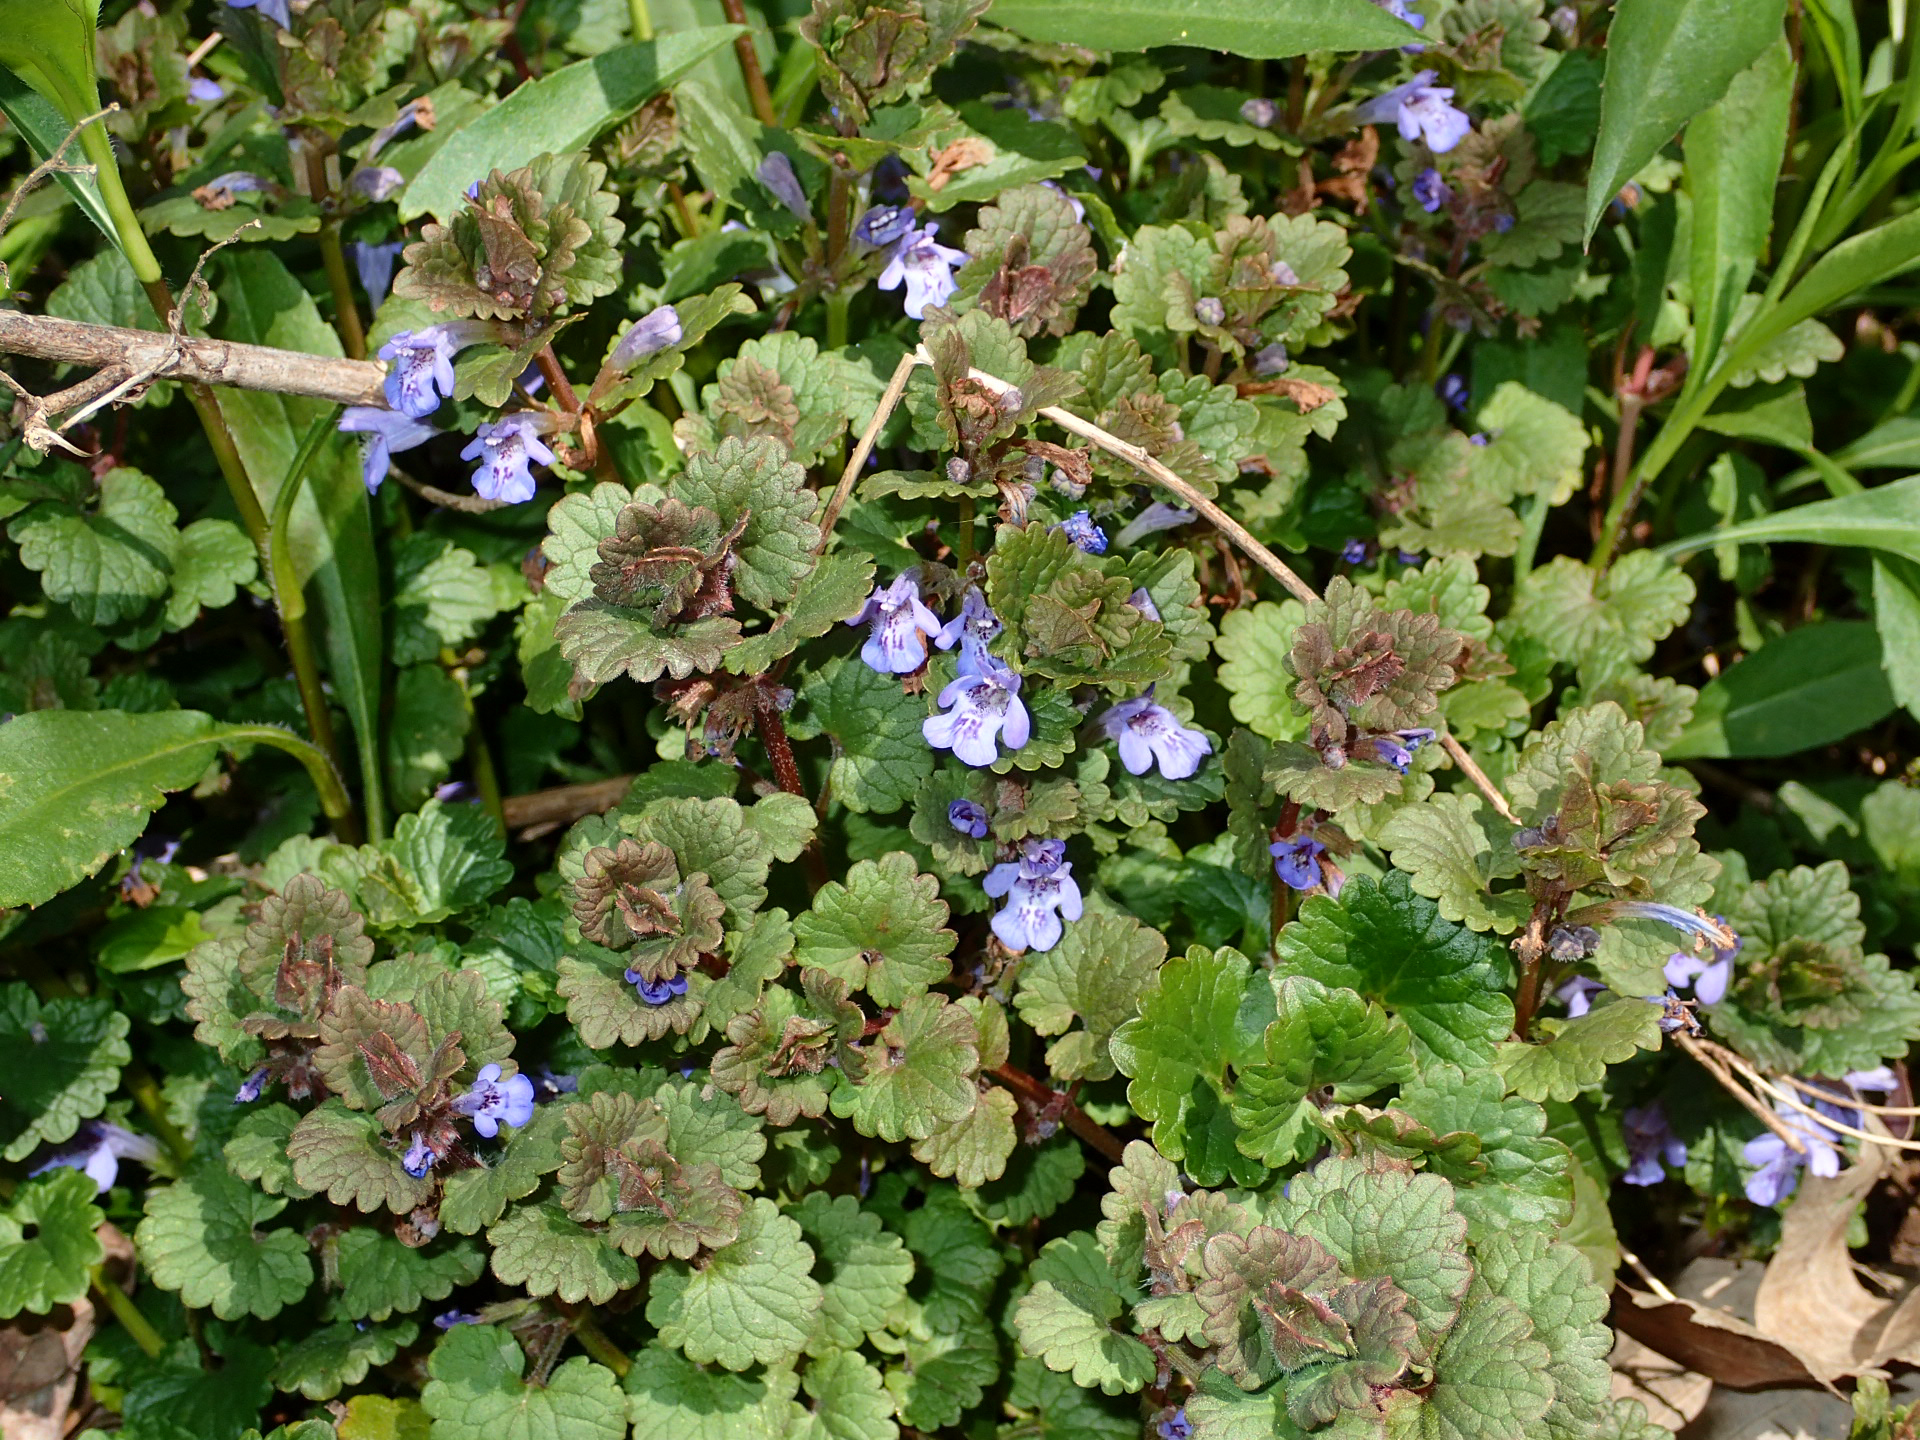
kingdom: Plantae
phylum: Tracheophyta
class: Magnoliopsida
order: Lamiales
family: Lamiaceae
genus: Glechoma
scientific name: Glechoma hederacea
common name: Ground ivy
